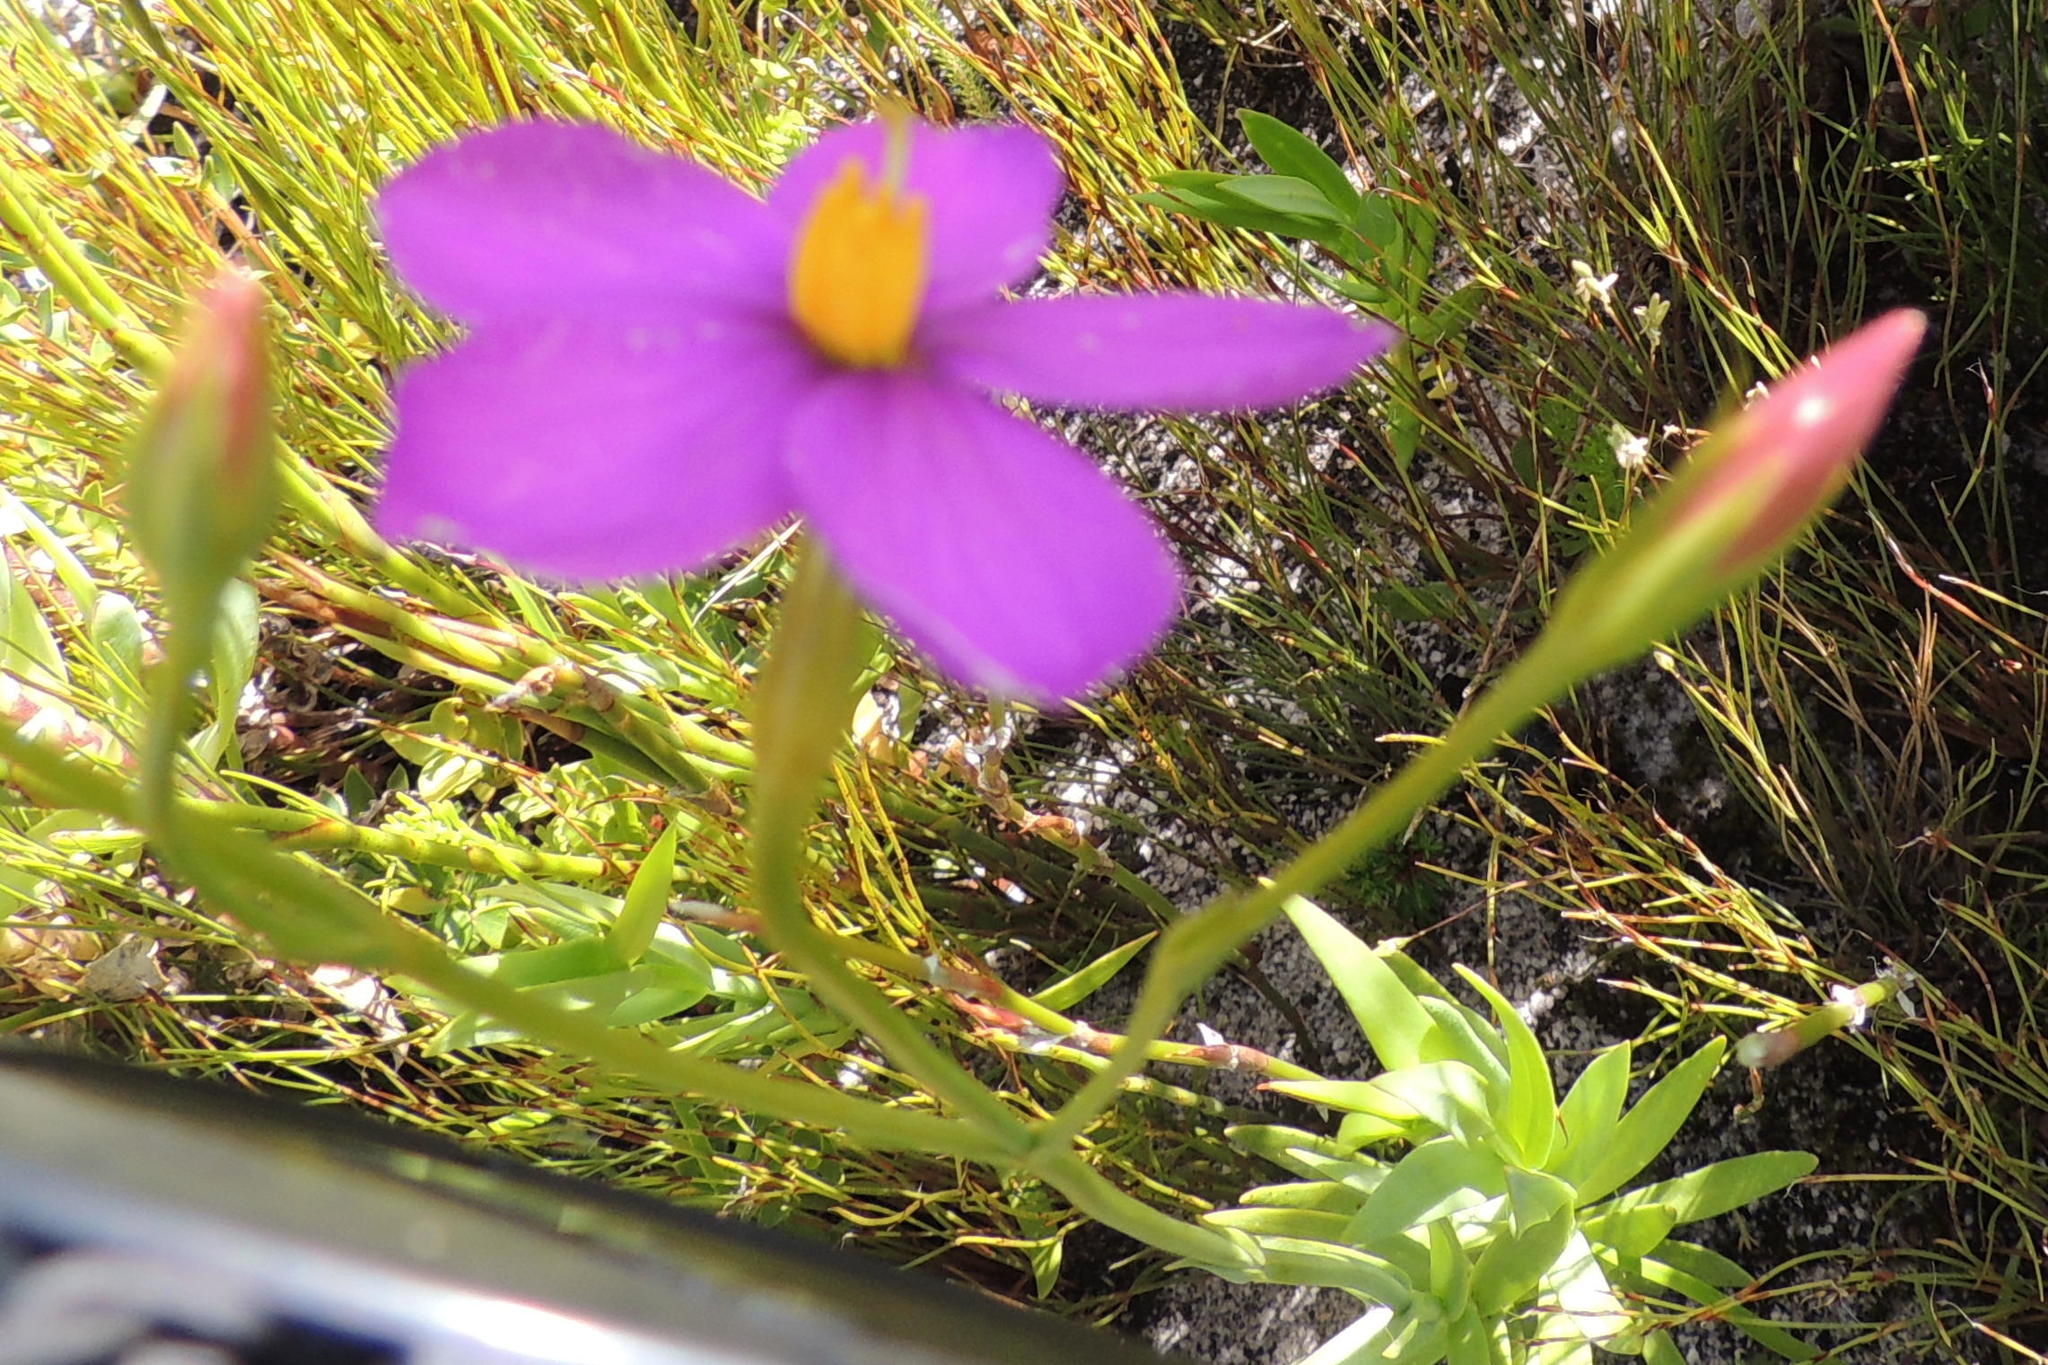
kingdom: Plantae
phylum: Tracheophyta
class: Magnoliopsida
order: Gentianales
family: Gentianaceae
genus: Chironia
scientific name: Chironia jasminoides
